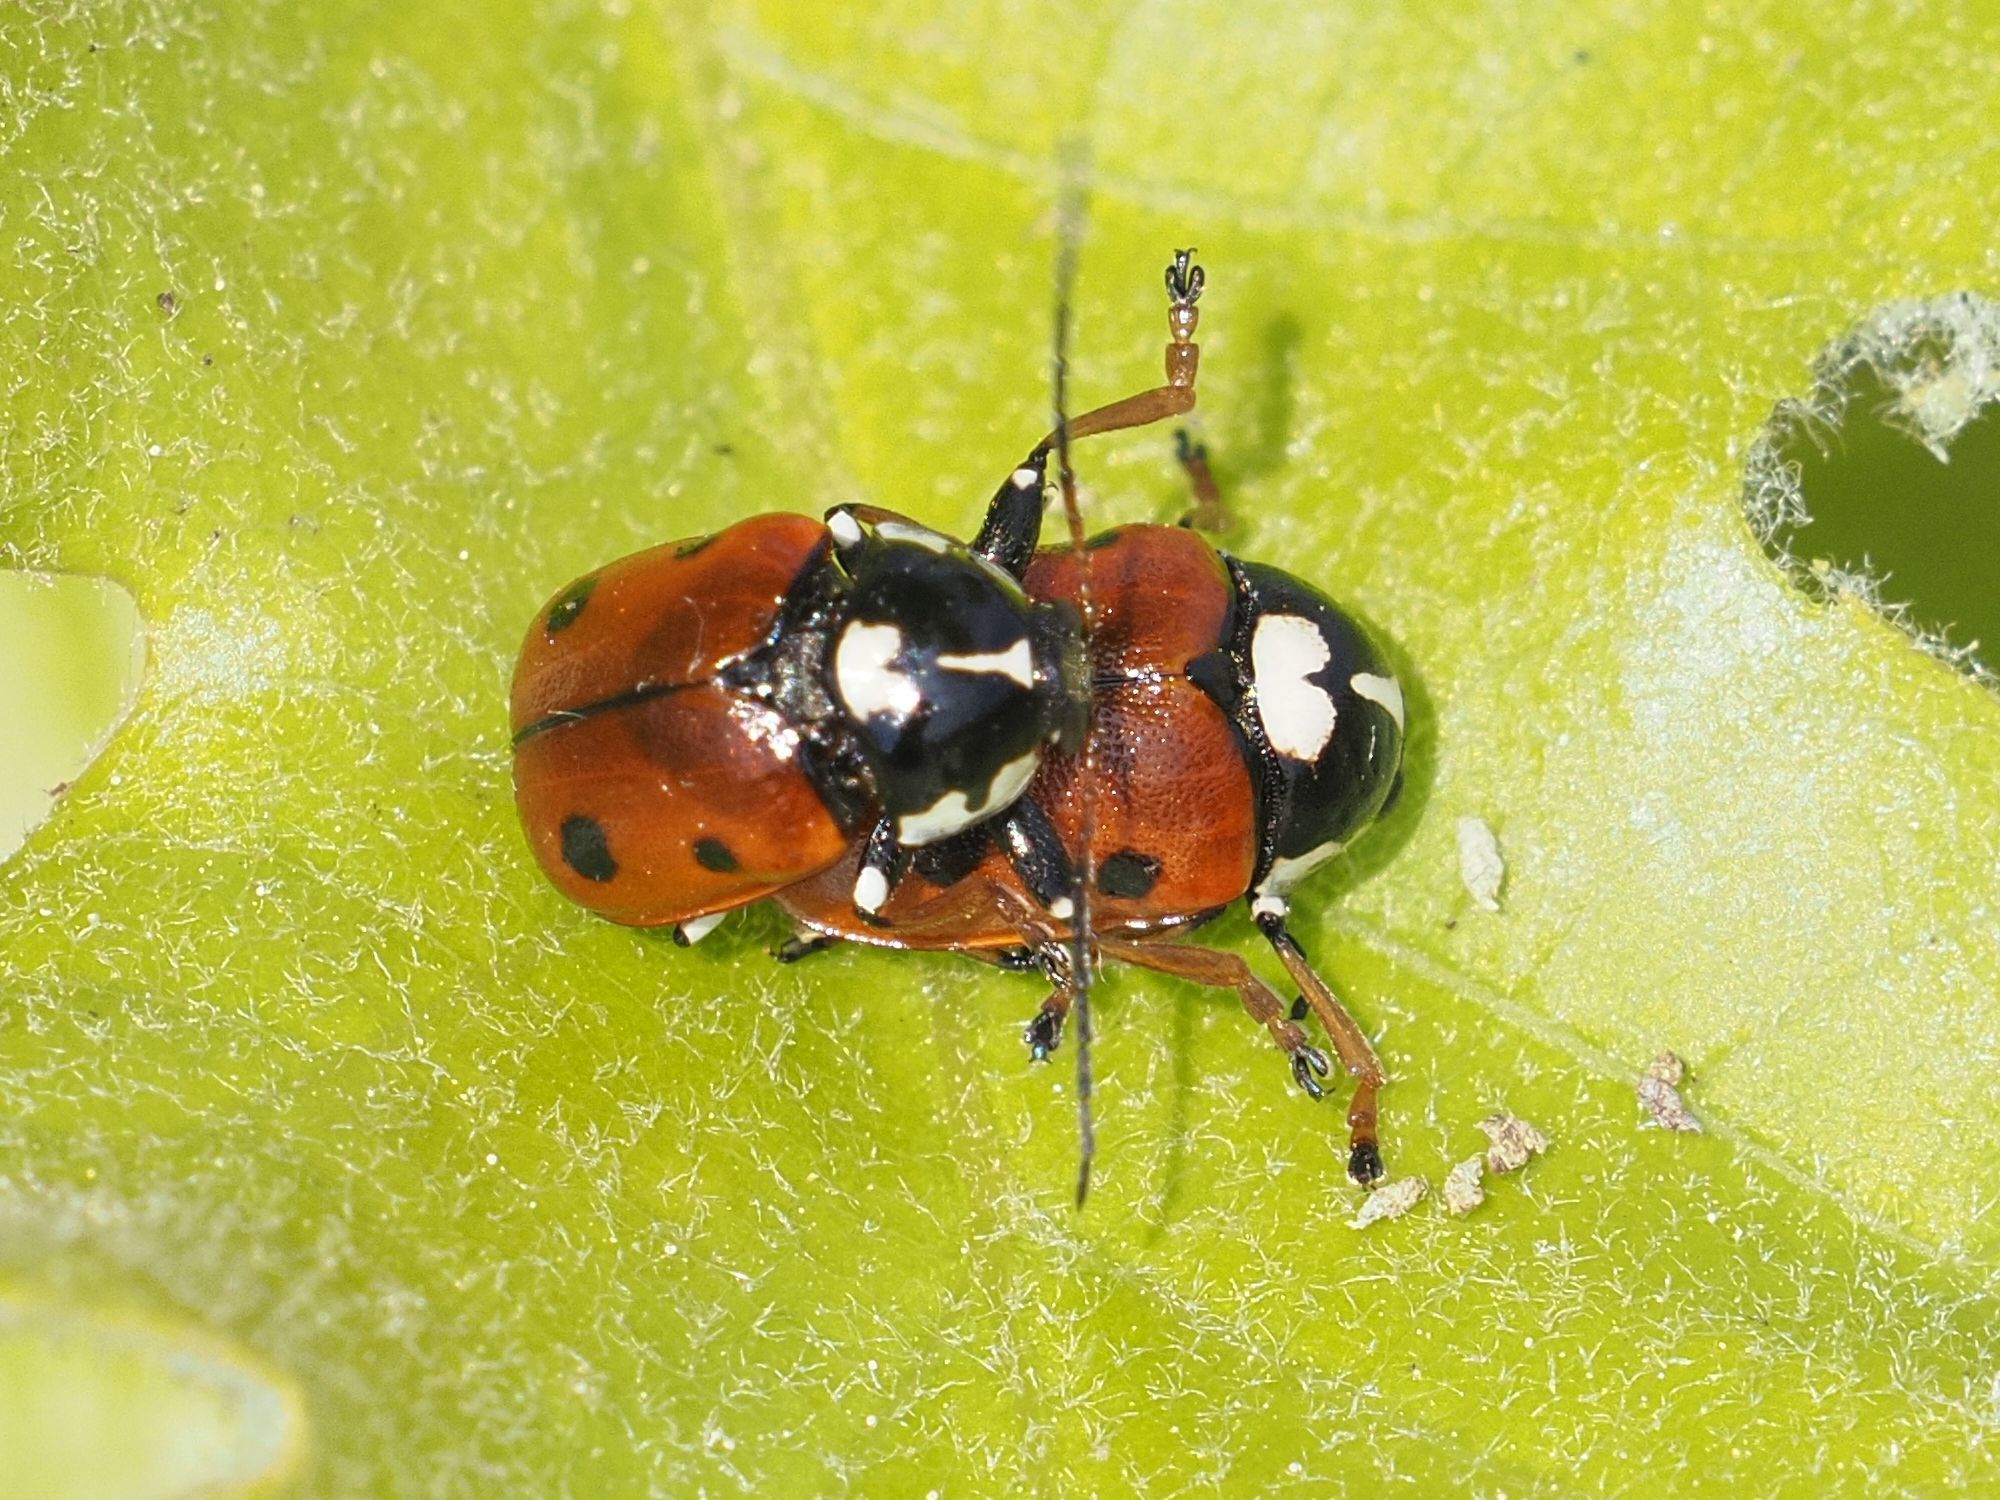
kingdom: Animalia
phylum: Arthropoda
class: Insecta
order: Coleoptera
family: Chrysomelidae
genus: Cryptocephalus
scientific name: Cryptocephalus cordiger
